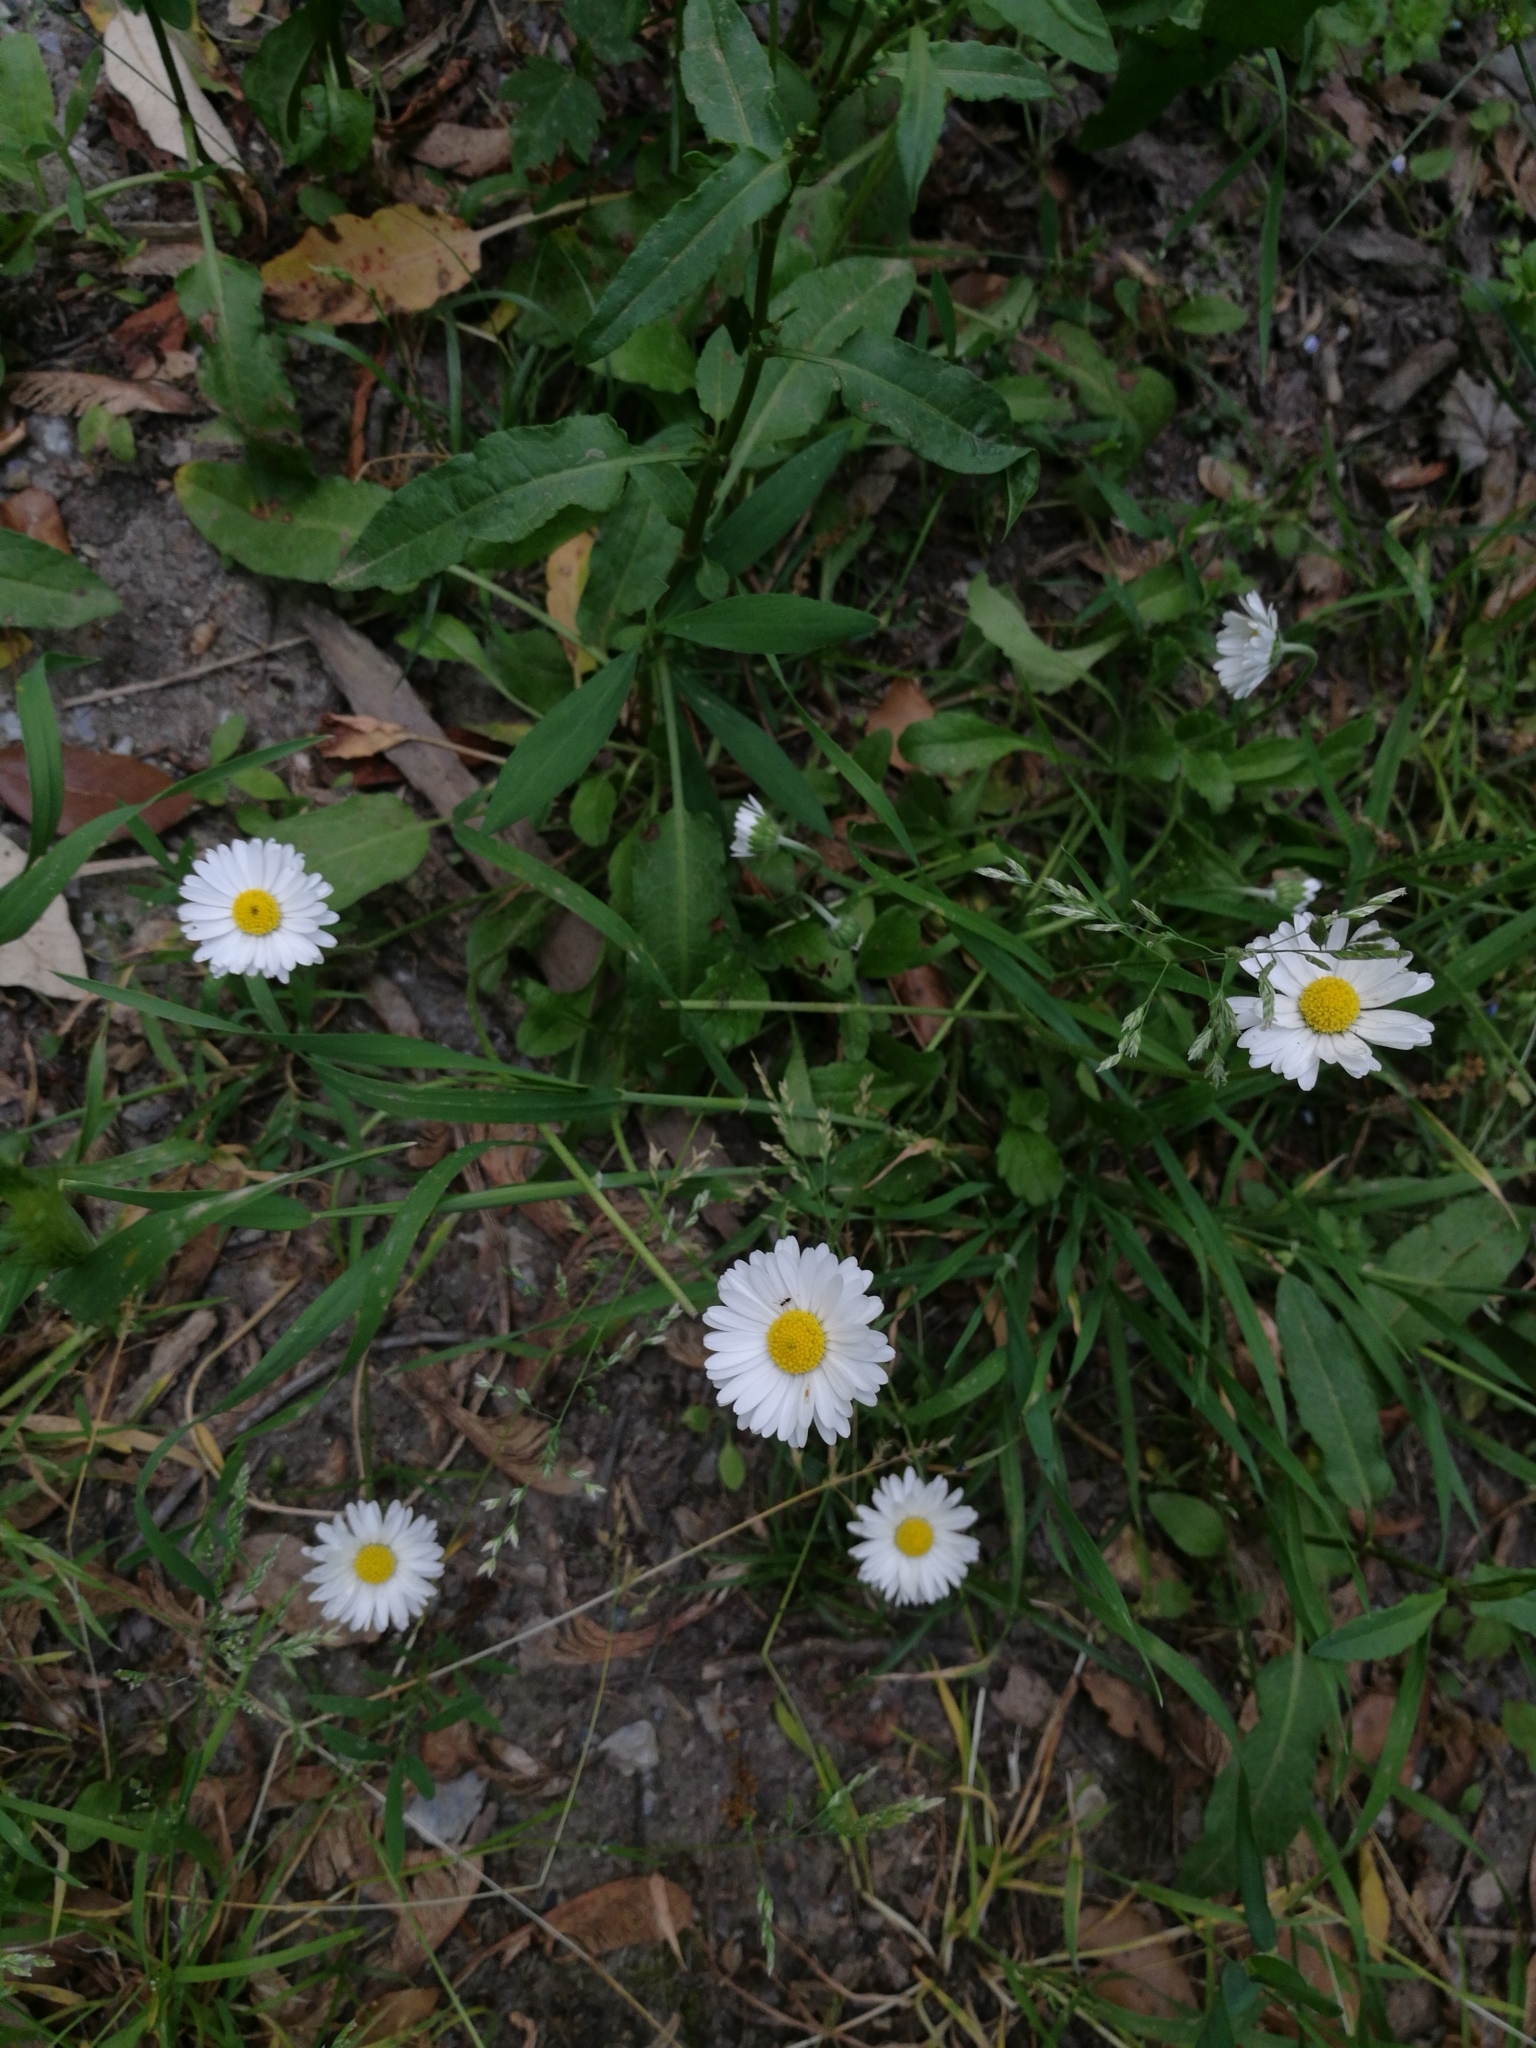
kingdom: Plantae
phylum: Tracheophyta
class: Magnoliopsida
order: Asterales
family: Asteraceae
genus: Bellis
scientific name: Bellis perennis
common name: Lawndaisy
